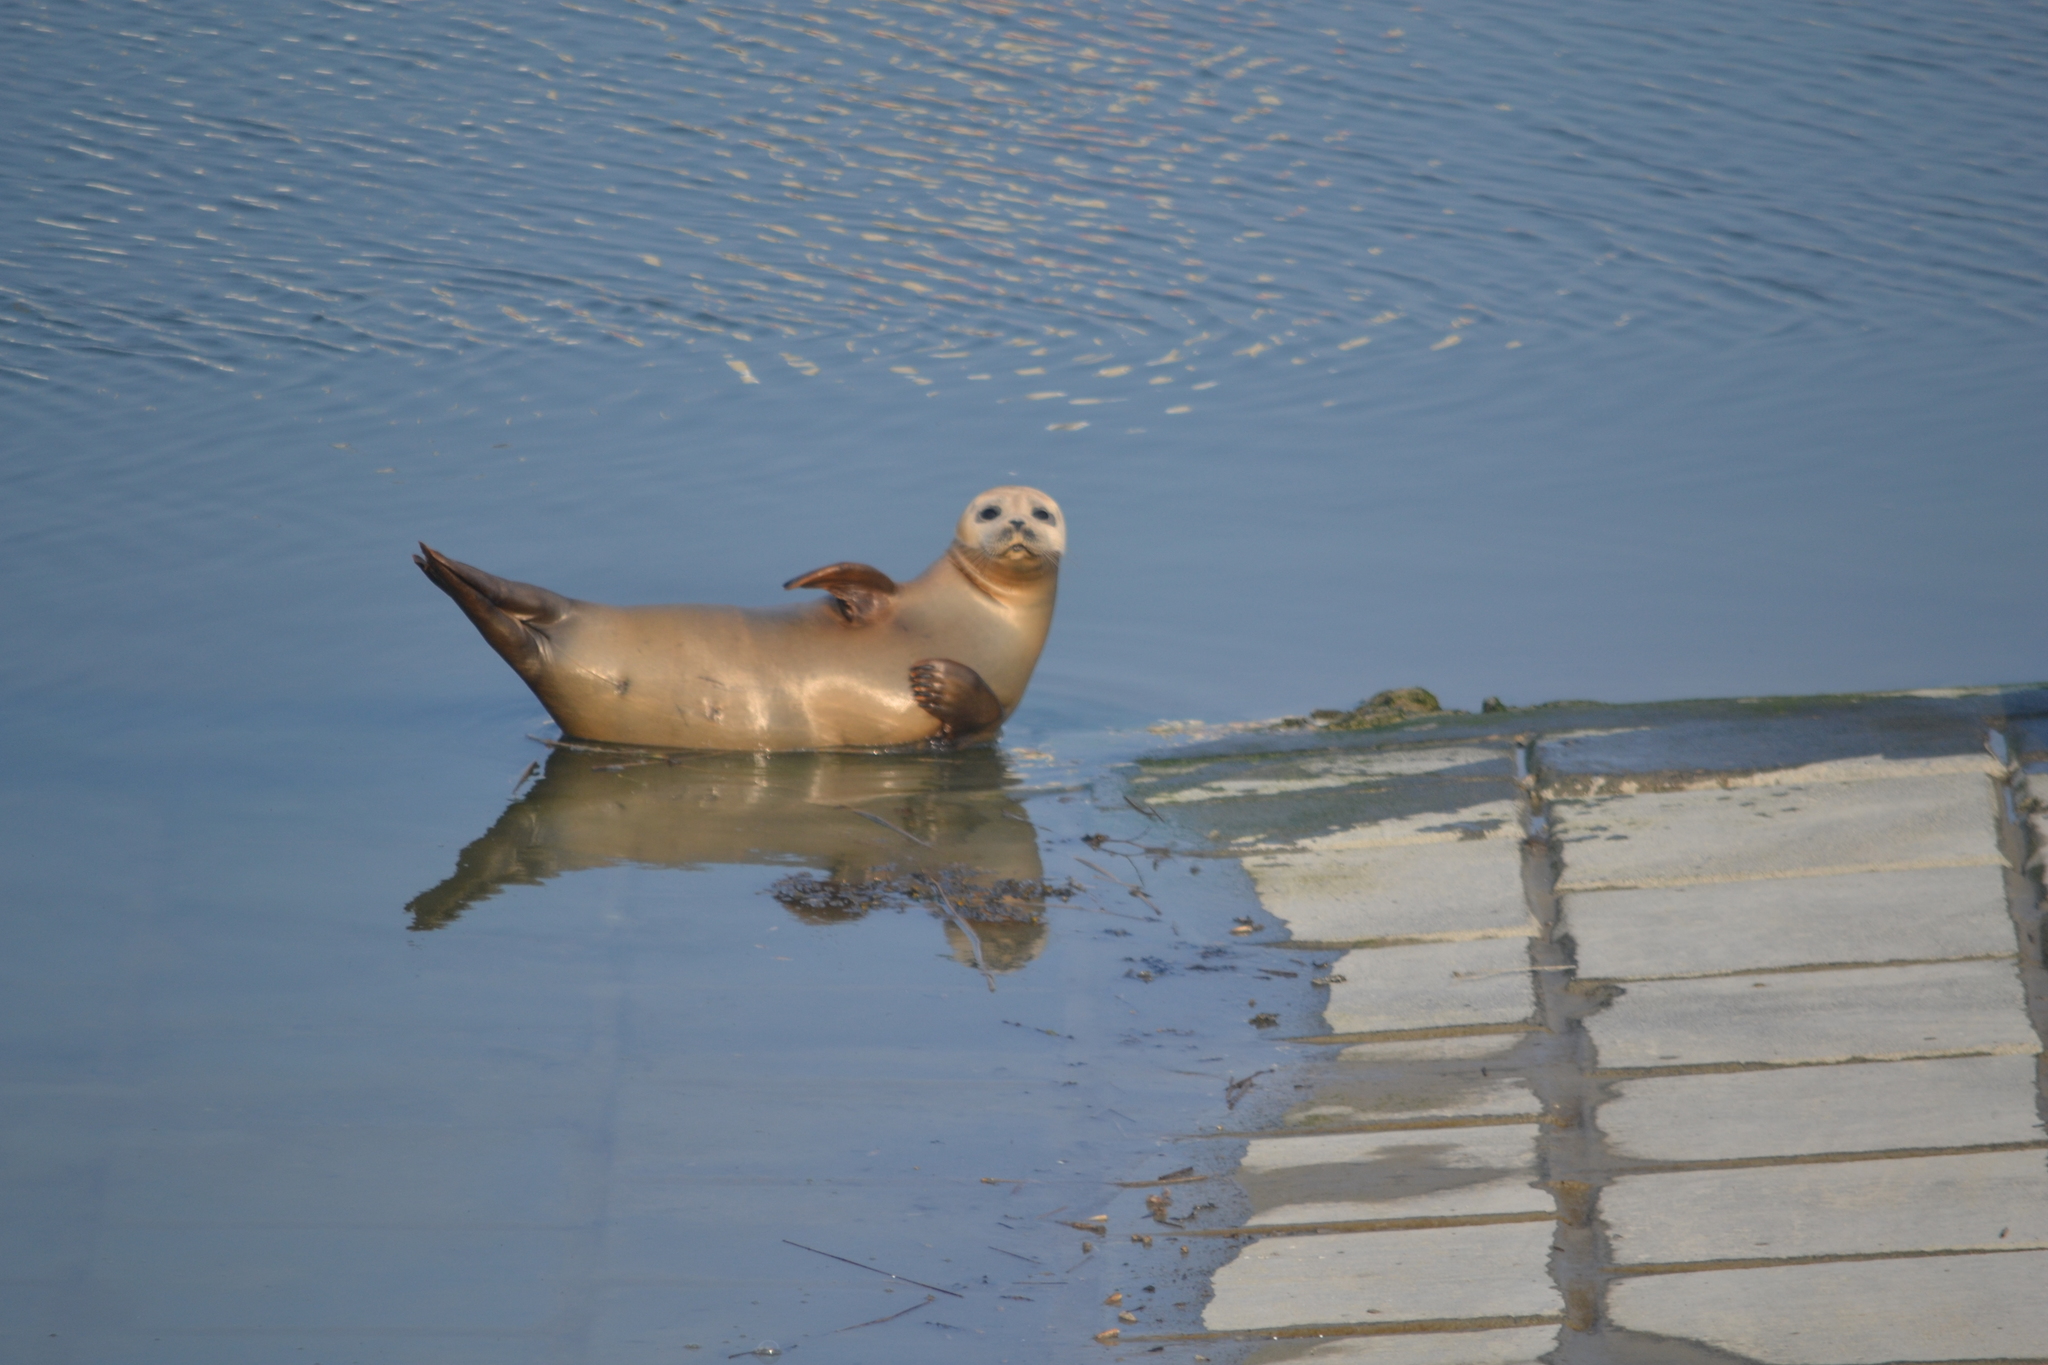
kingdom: Animalia
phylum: Chordata
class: Mammalia
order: Carnivora
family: Phocidae
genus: Phoca
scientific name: Phoca vitulina
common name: Harbor seal
